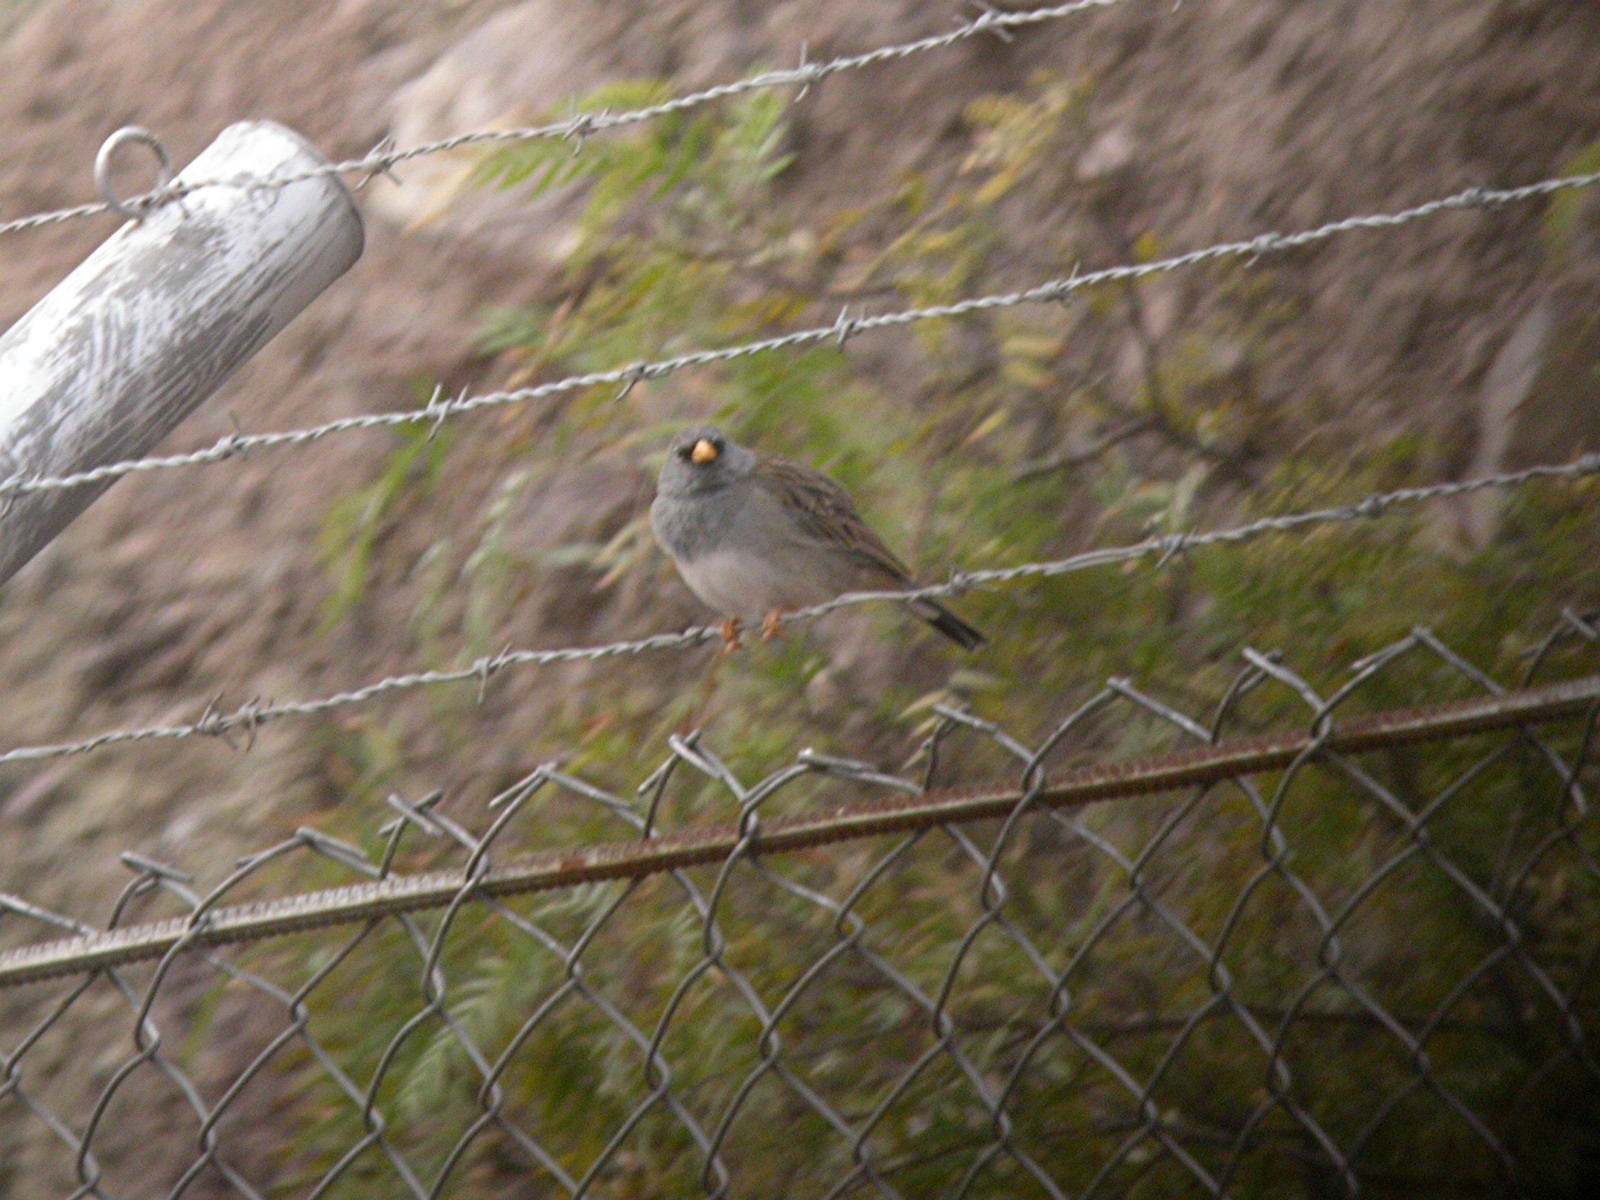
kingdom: Animalia
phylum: Chordata
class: Aves
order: Passeriformes
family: Thraupidae
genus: Porphyrospiza
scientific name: Porphyrospiza alaudina
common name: Band-tailed sierra finch
